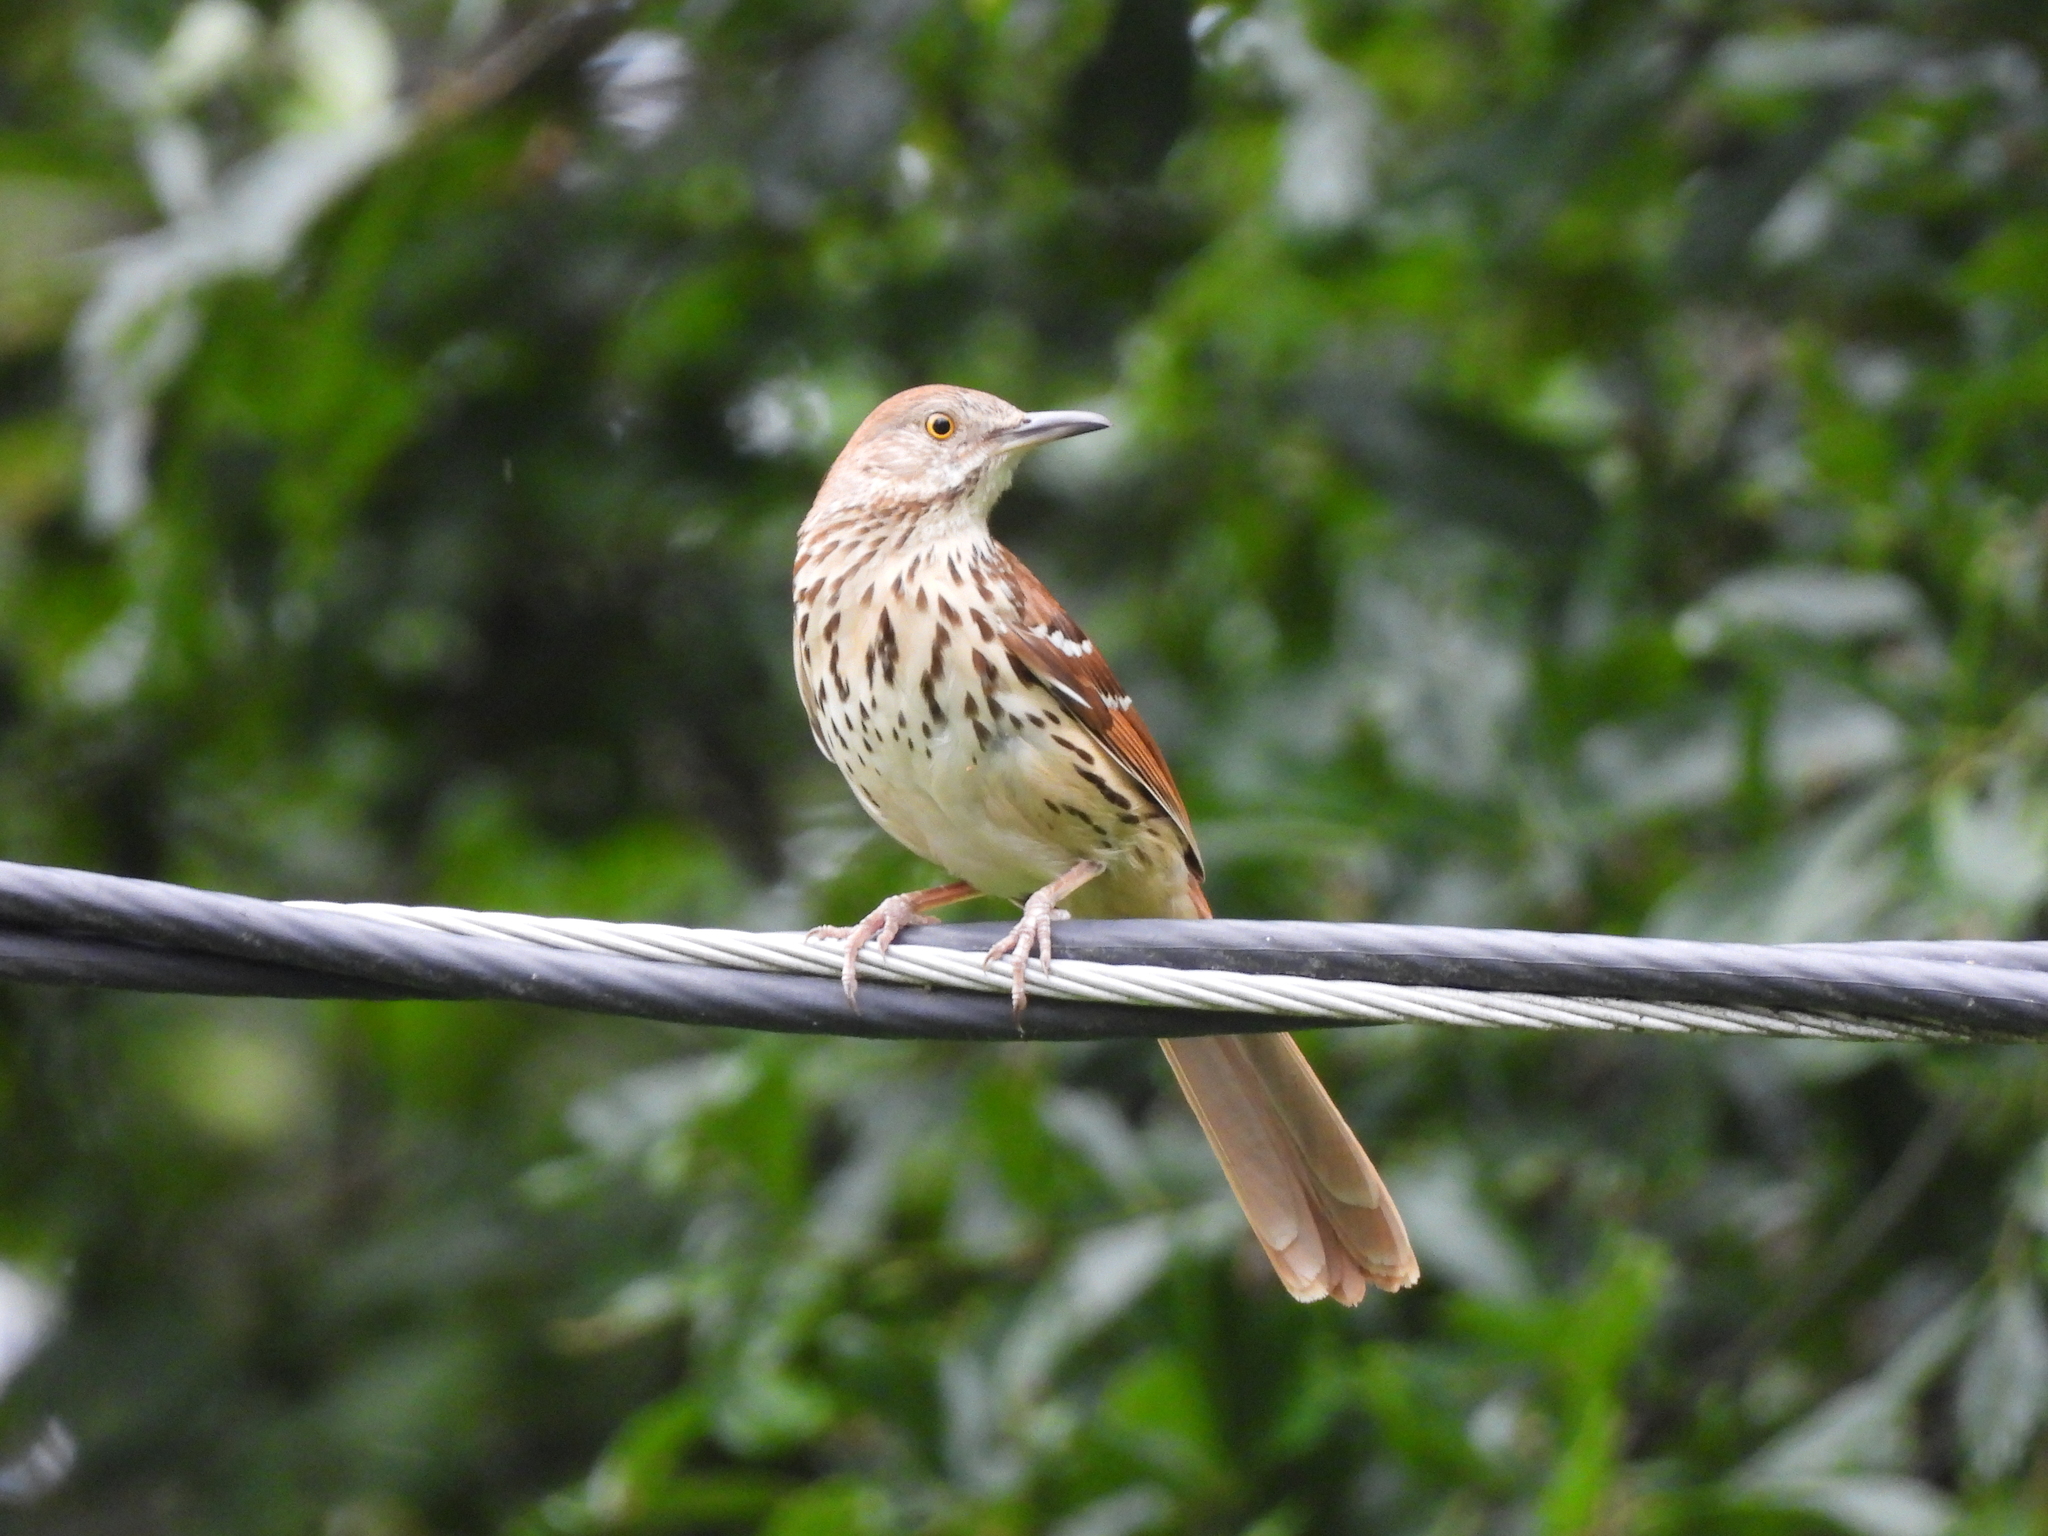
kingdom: Animalia
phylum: Chordata
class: Aves
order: Passeriformes
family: Mimidae
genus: Toxostoma
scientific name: Toxostoma rufum
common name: Brown thrasher
